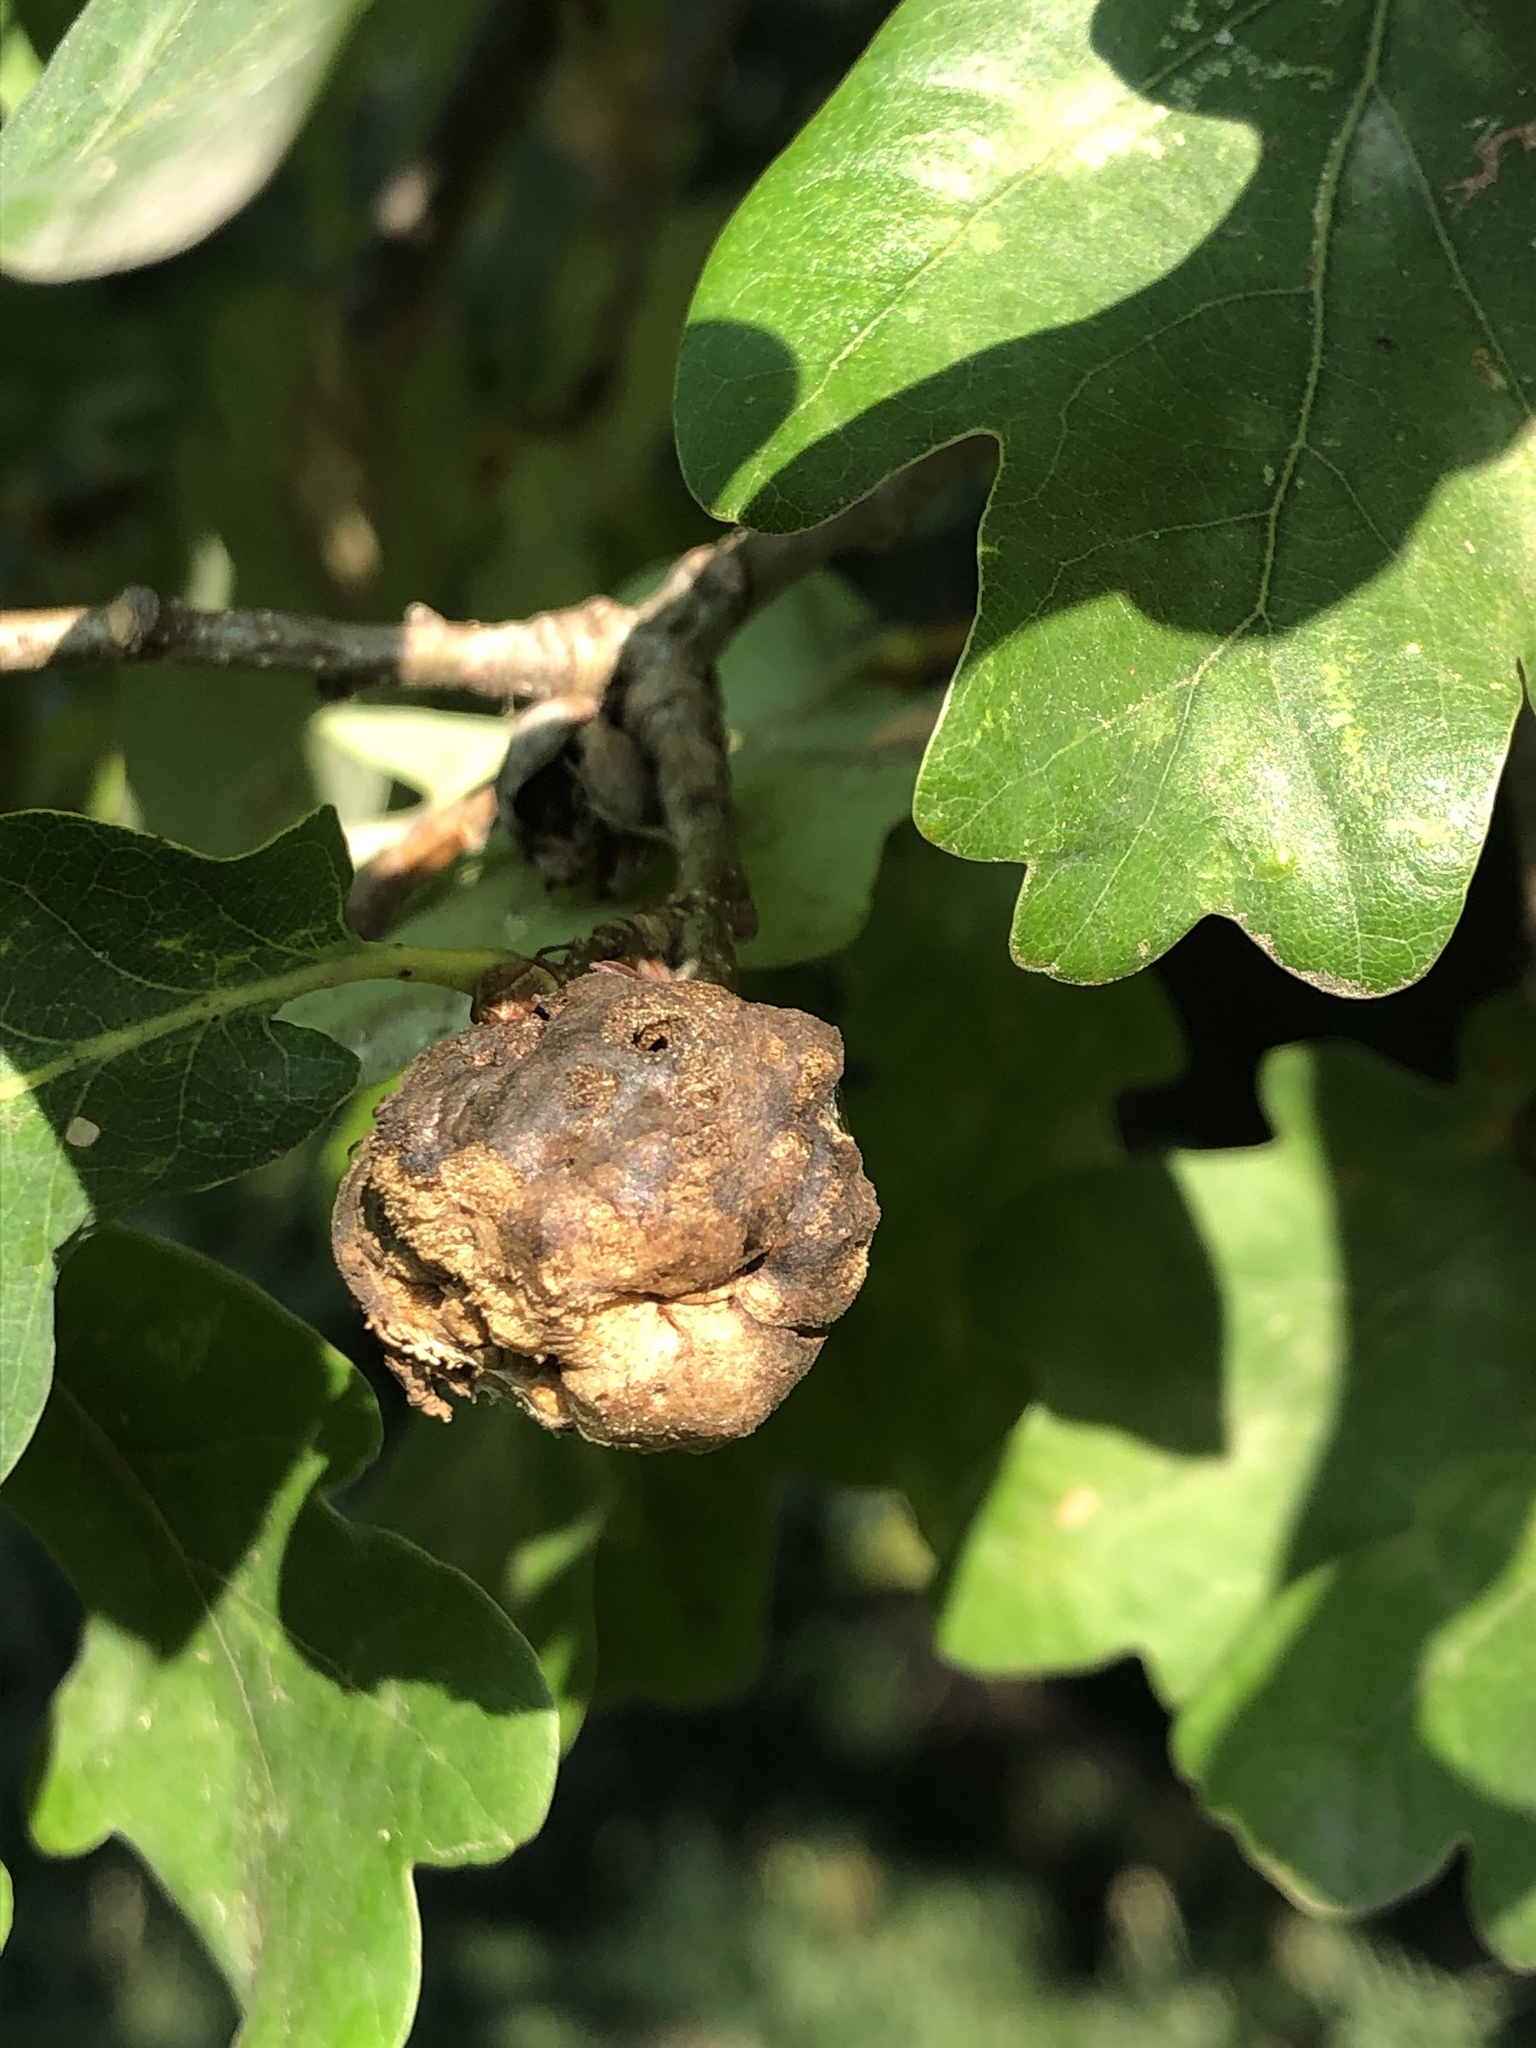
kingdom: Animalia
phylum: Arthropoda
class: Insecta
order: Hymenoptera
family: Cynipidae
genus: Biorhiza
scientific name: Biorhiza pallida
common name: Oak apple
